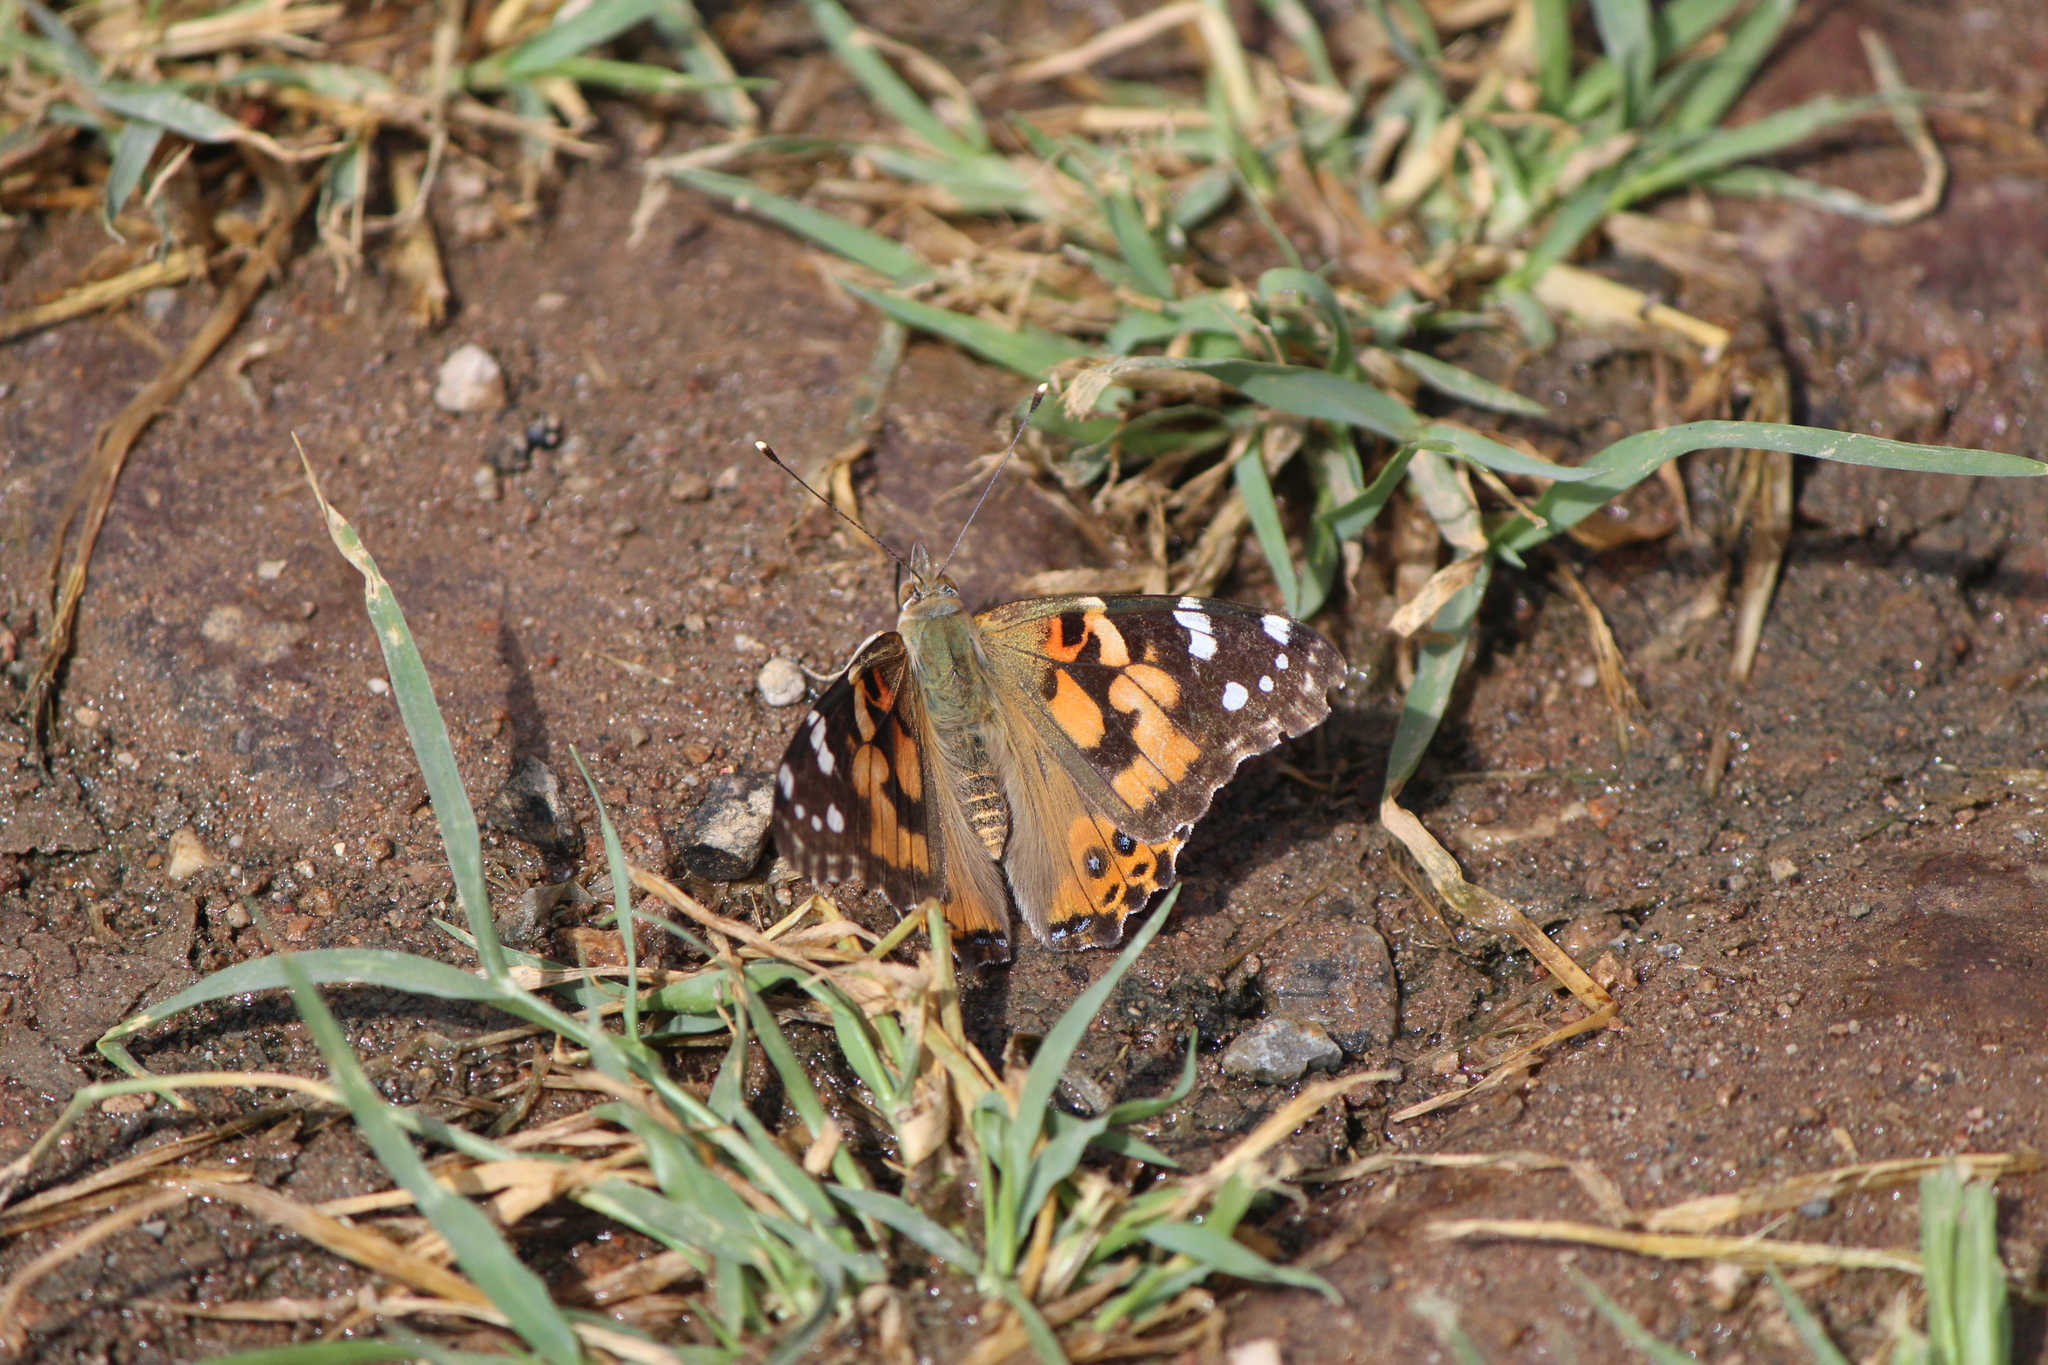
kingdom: Animalia
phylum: Arthropoda
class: Insecta
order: Lepidoptera
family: Nymphalidae
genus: Vanessa
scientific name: Vanessa cardui
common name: Painted lady
